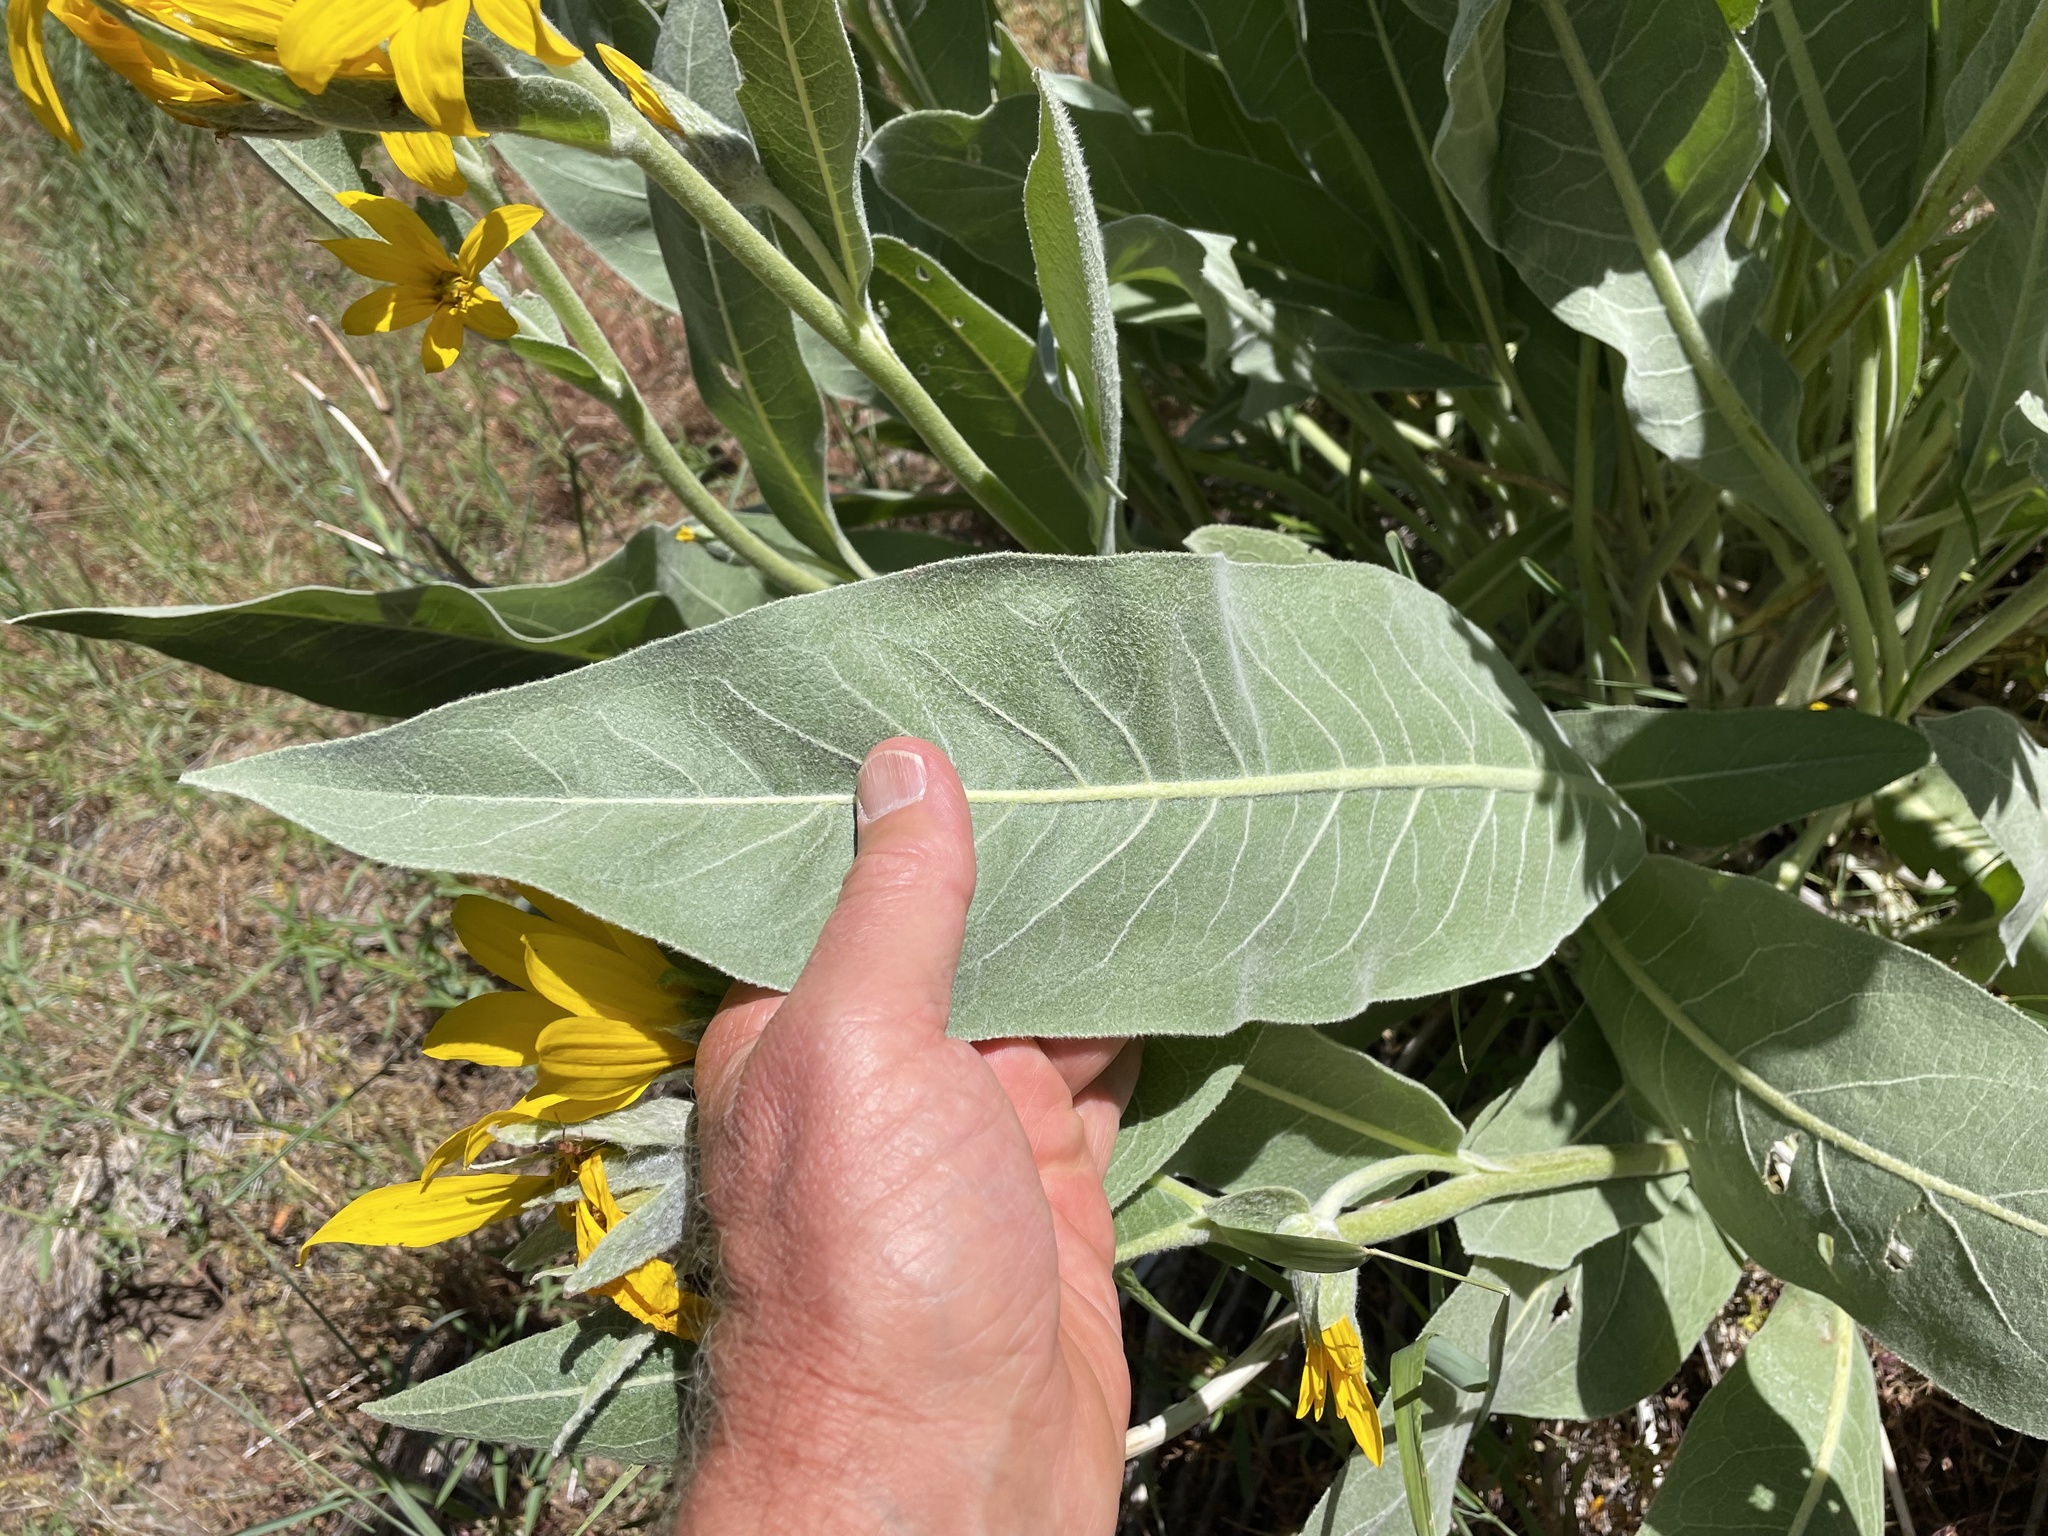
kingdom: Plantae
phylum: Tracheophyta
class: Magnoliopsida
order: Asterales
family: Asteraceae
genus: Wyethia
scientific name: Wyethia mollis
